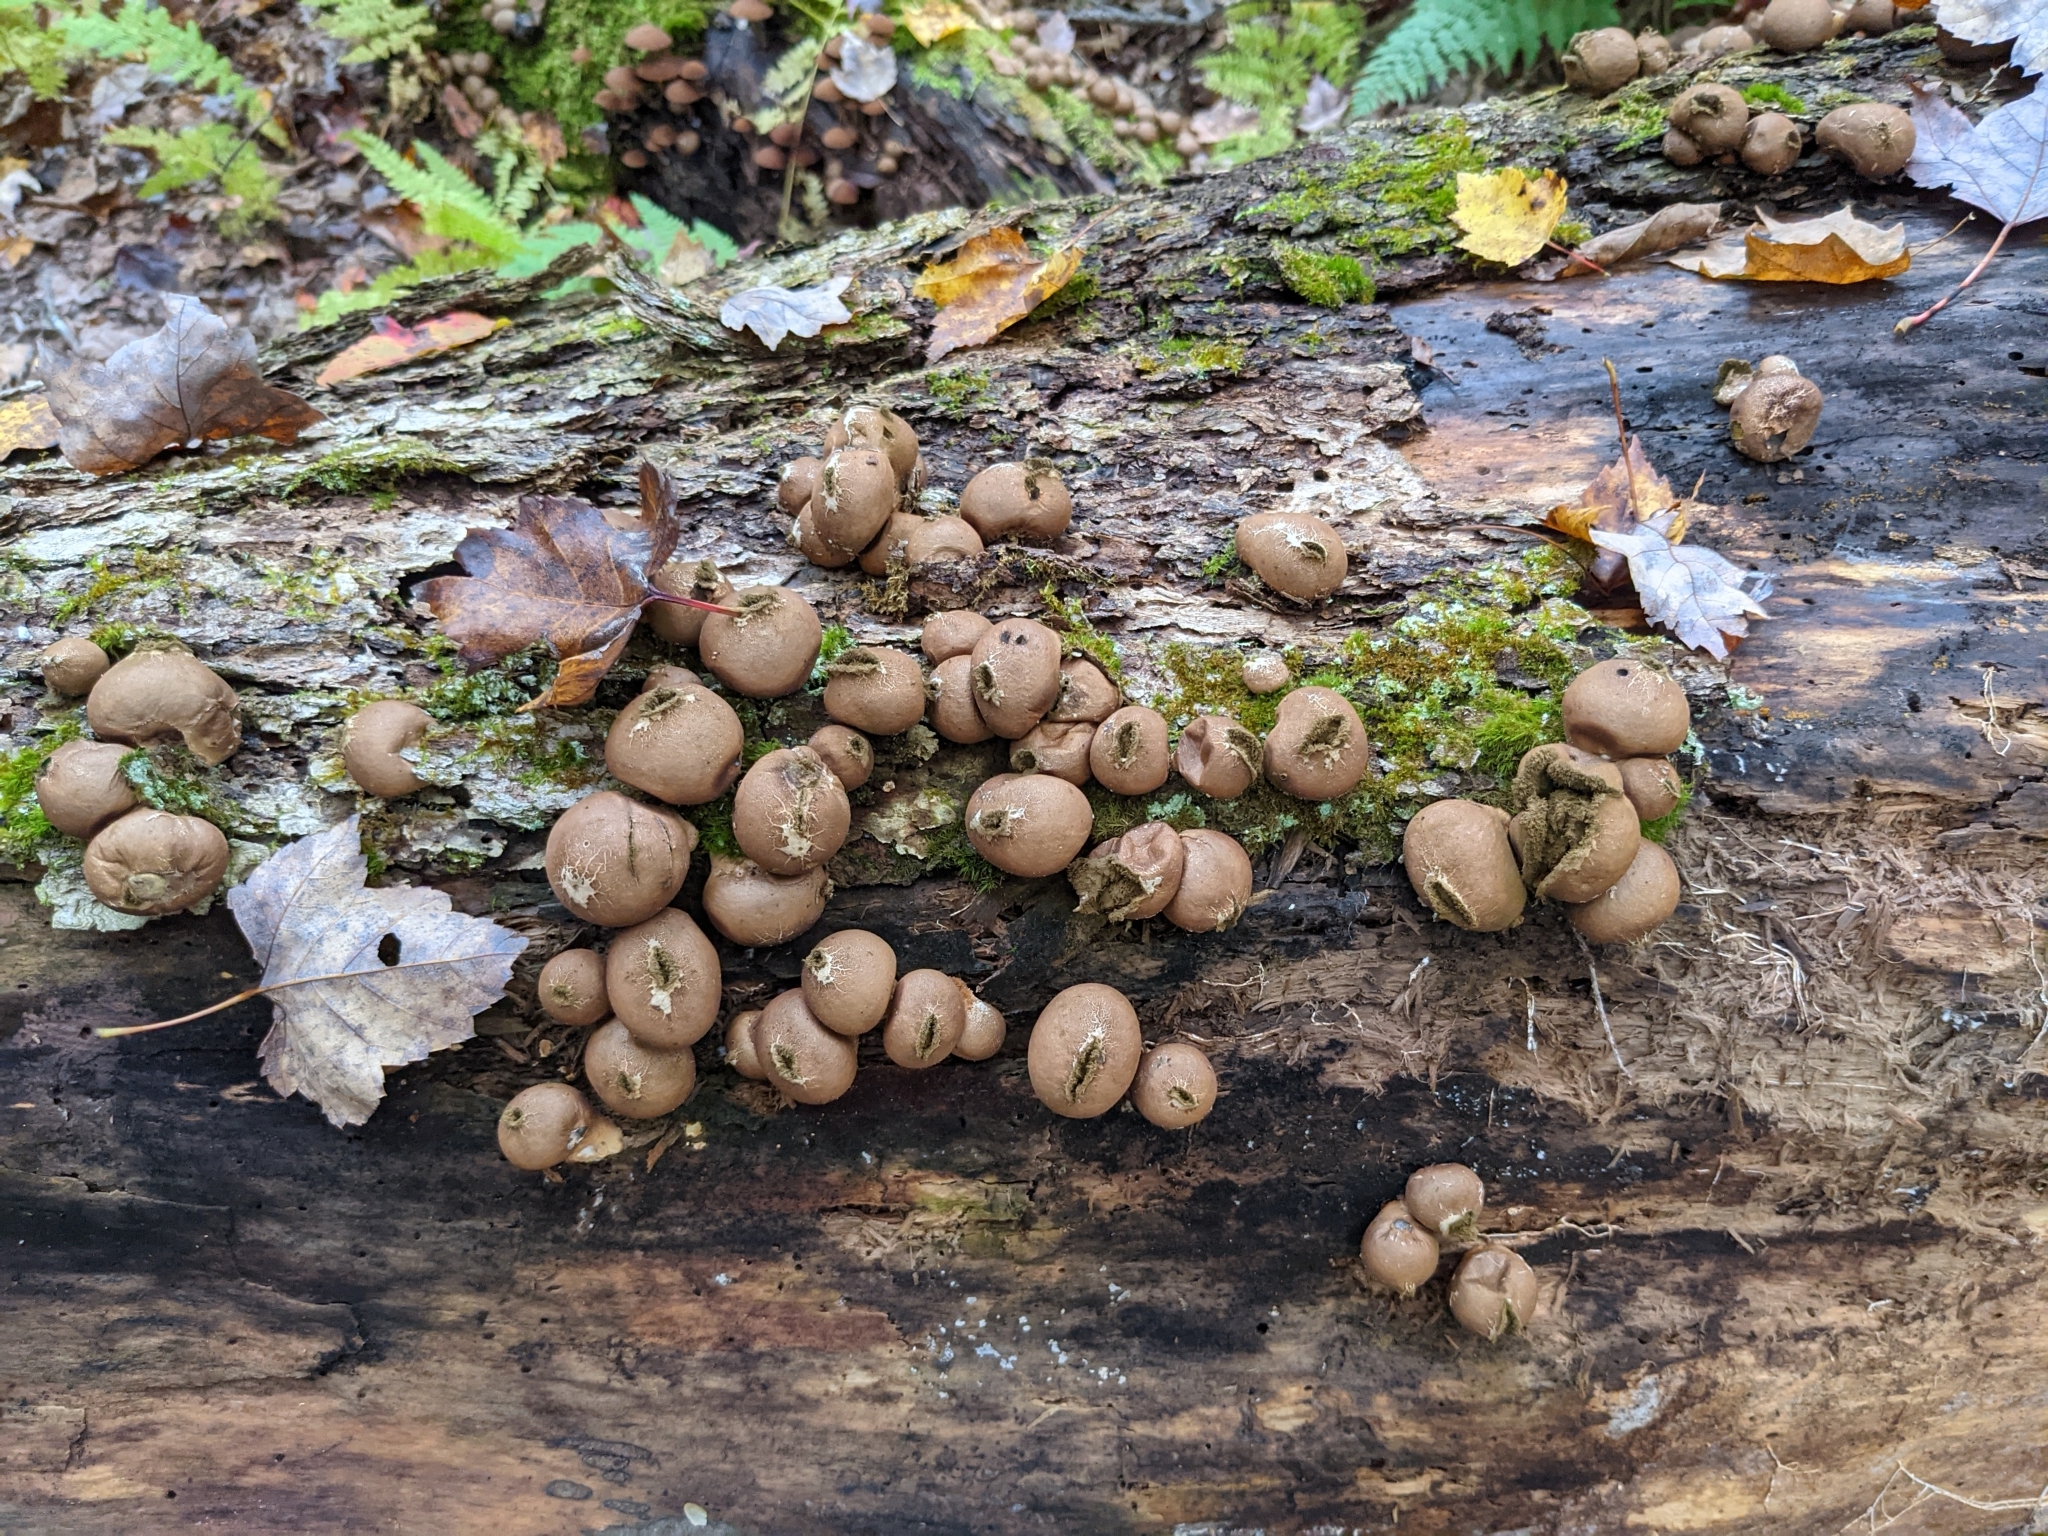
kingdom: Fungi
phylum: Basidiomycota
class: Agaricomycetes
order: Agaricales
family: Lycoperdaceae
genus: Apioperdon
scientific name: Apioperdon pyriforme
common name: Pear-shaped puffball
